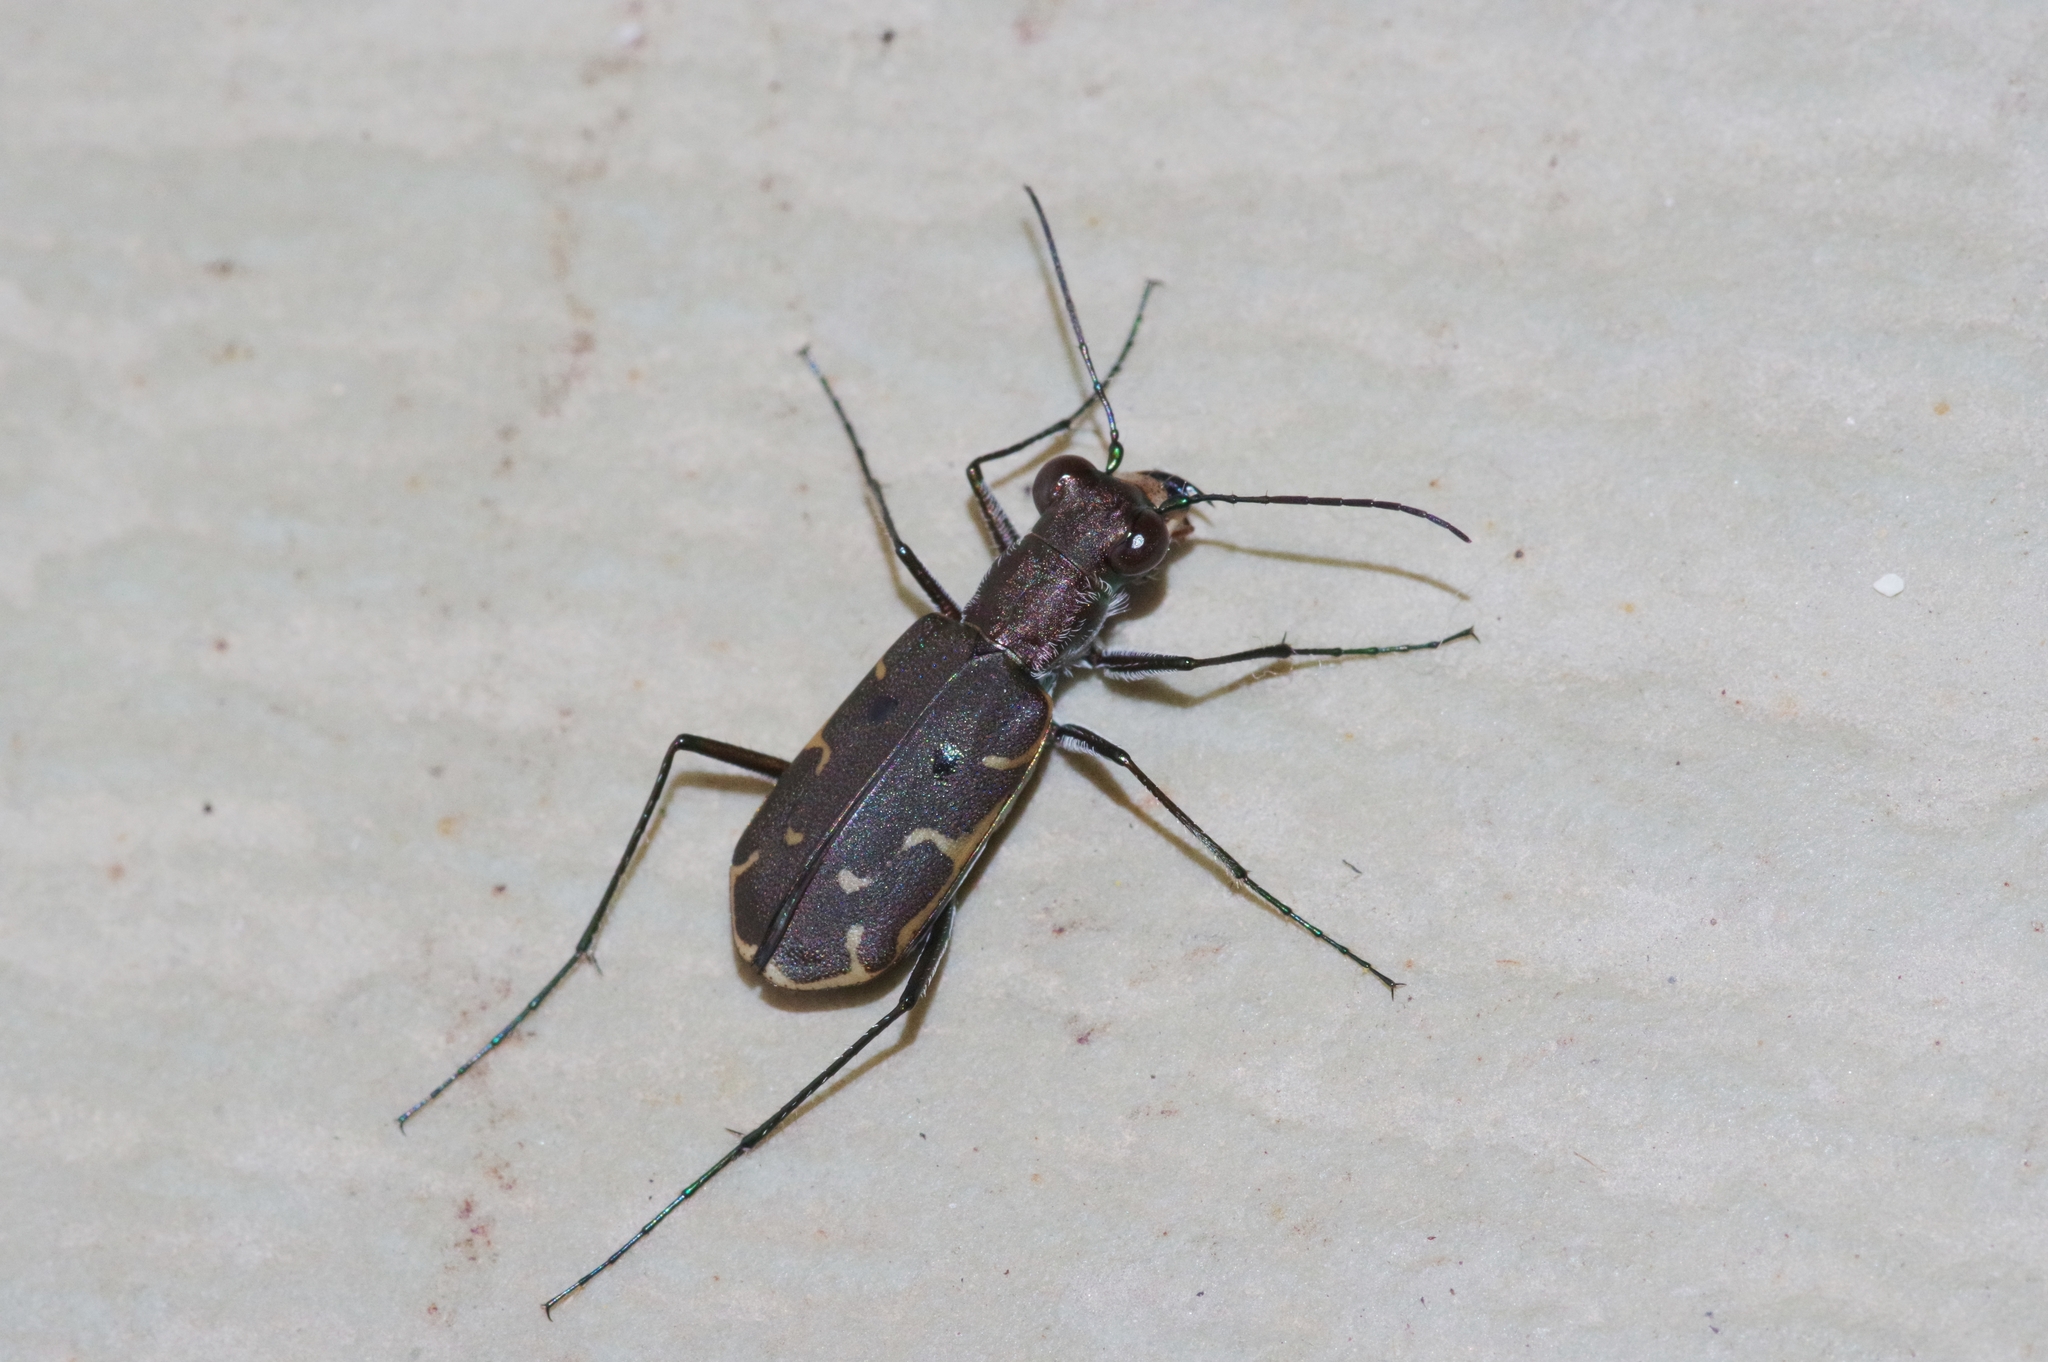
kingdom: Animalia
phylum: Arthropoda
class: Insecta
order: Coleoptera
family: Carabidae
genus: Myriochila
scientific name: Myriochila specularis
